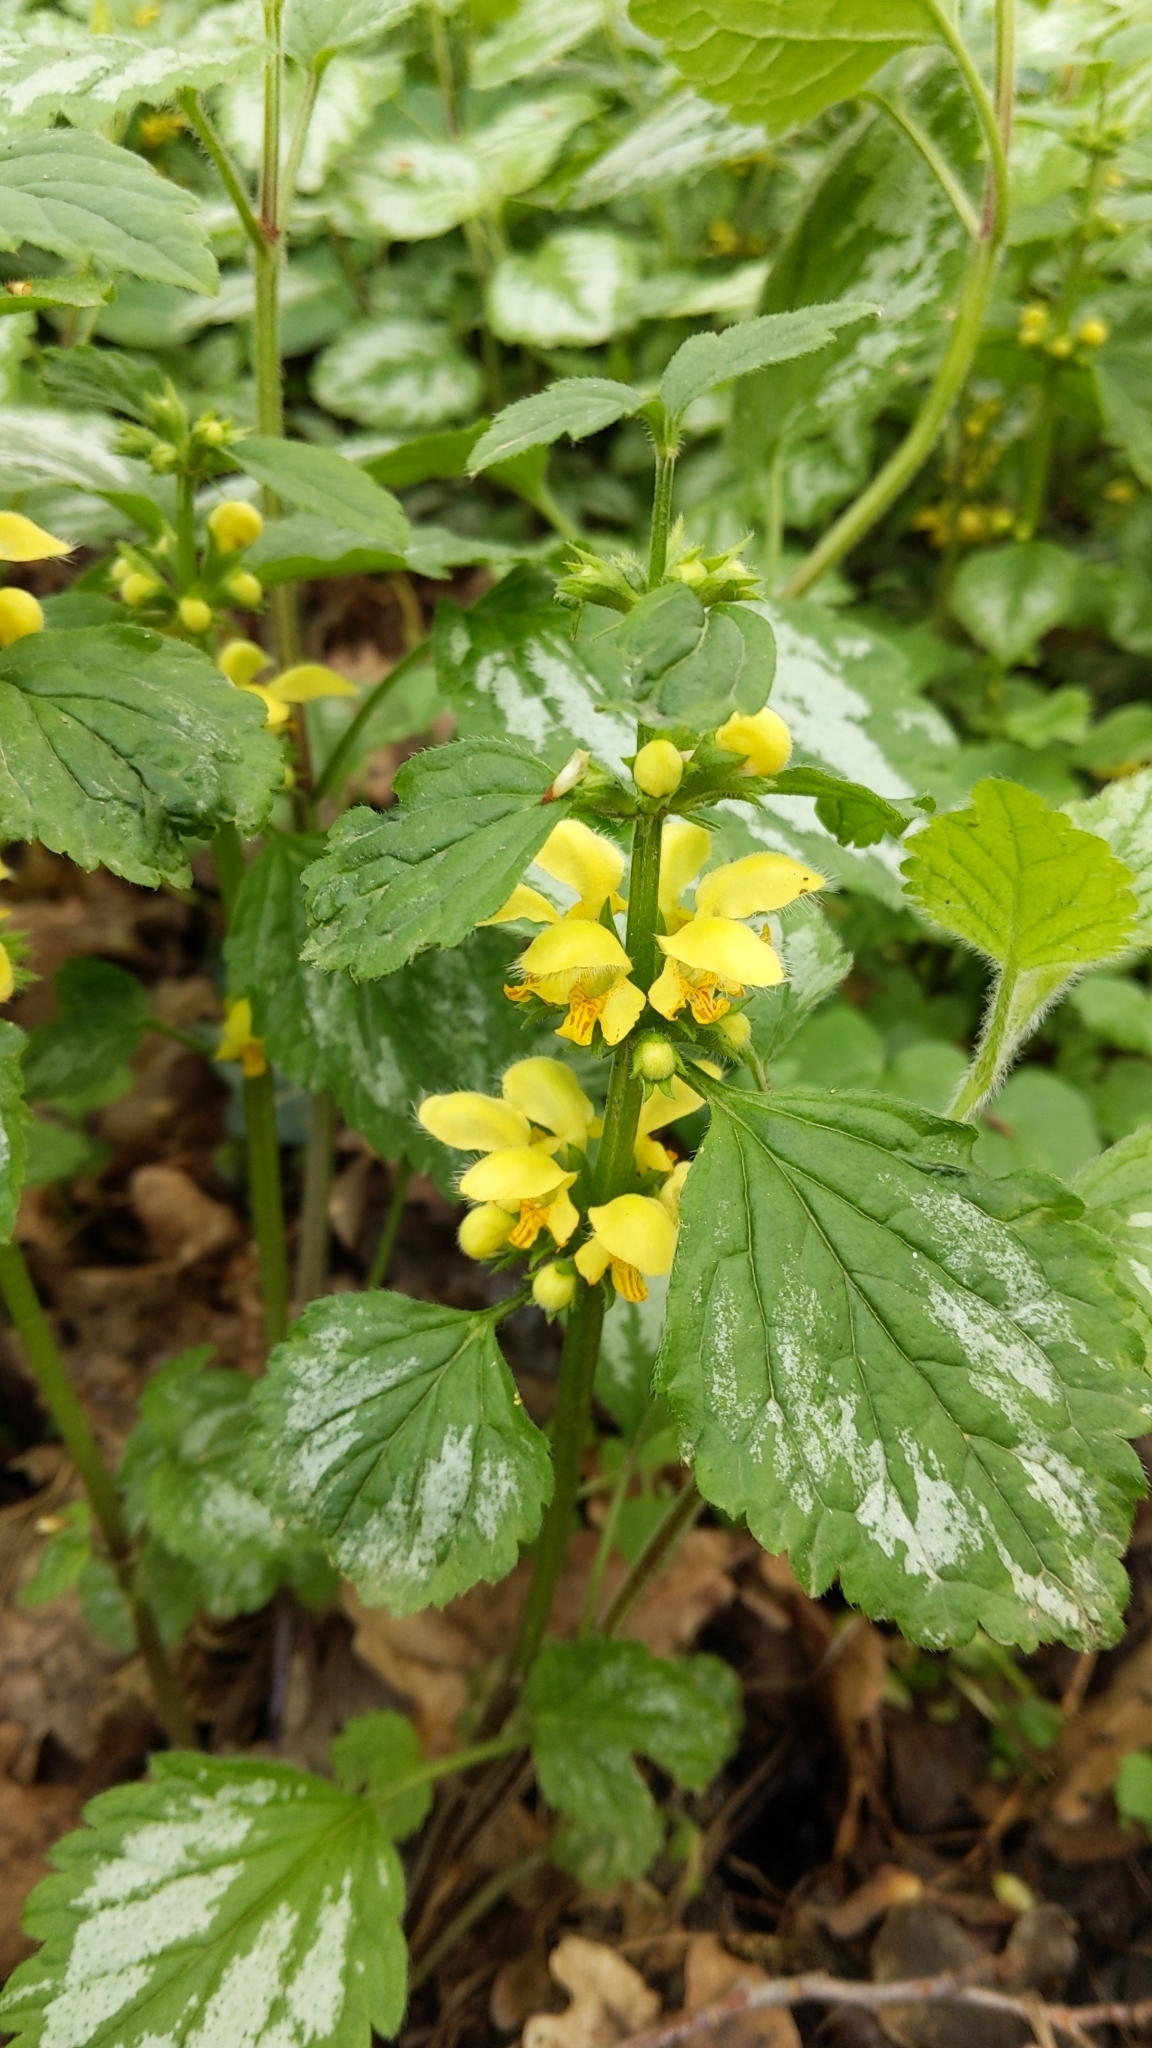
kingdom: Plantae
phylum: Tracheophyta
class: Magnoliopsida
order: Lamiales
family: Lamiaceae
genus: Lamium
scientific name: Lamium galeobdolon
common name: Yellow archangel
